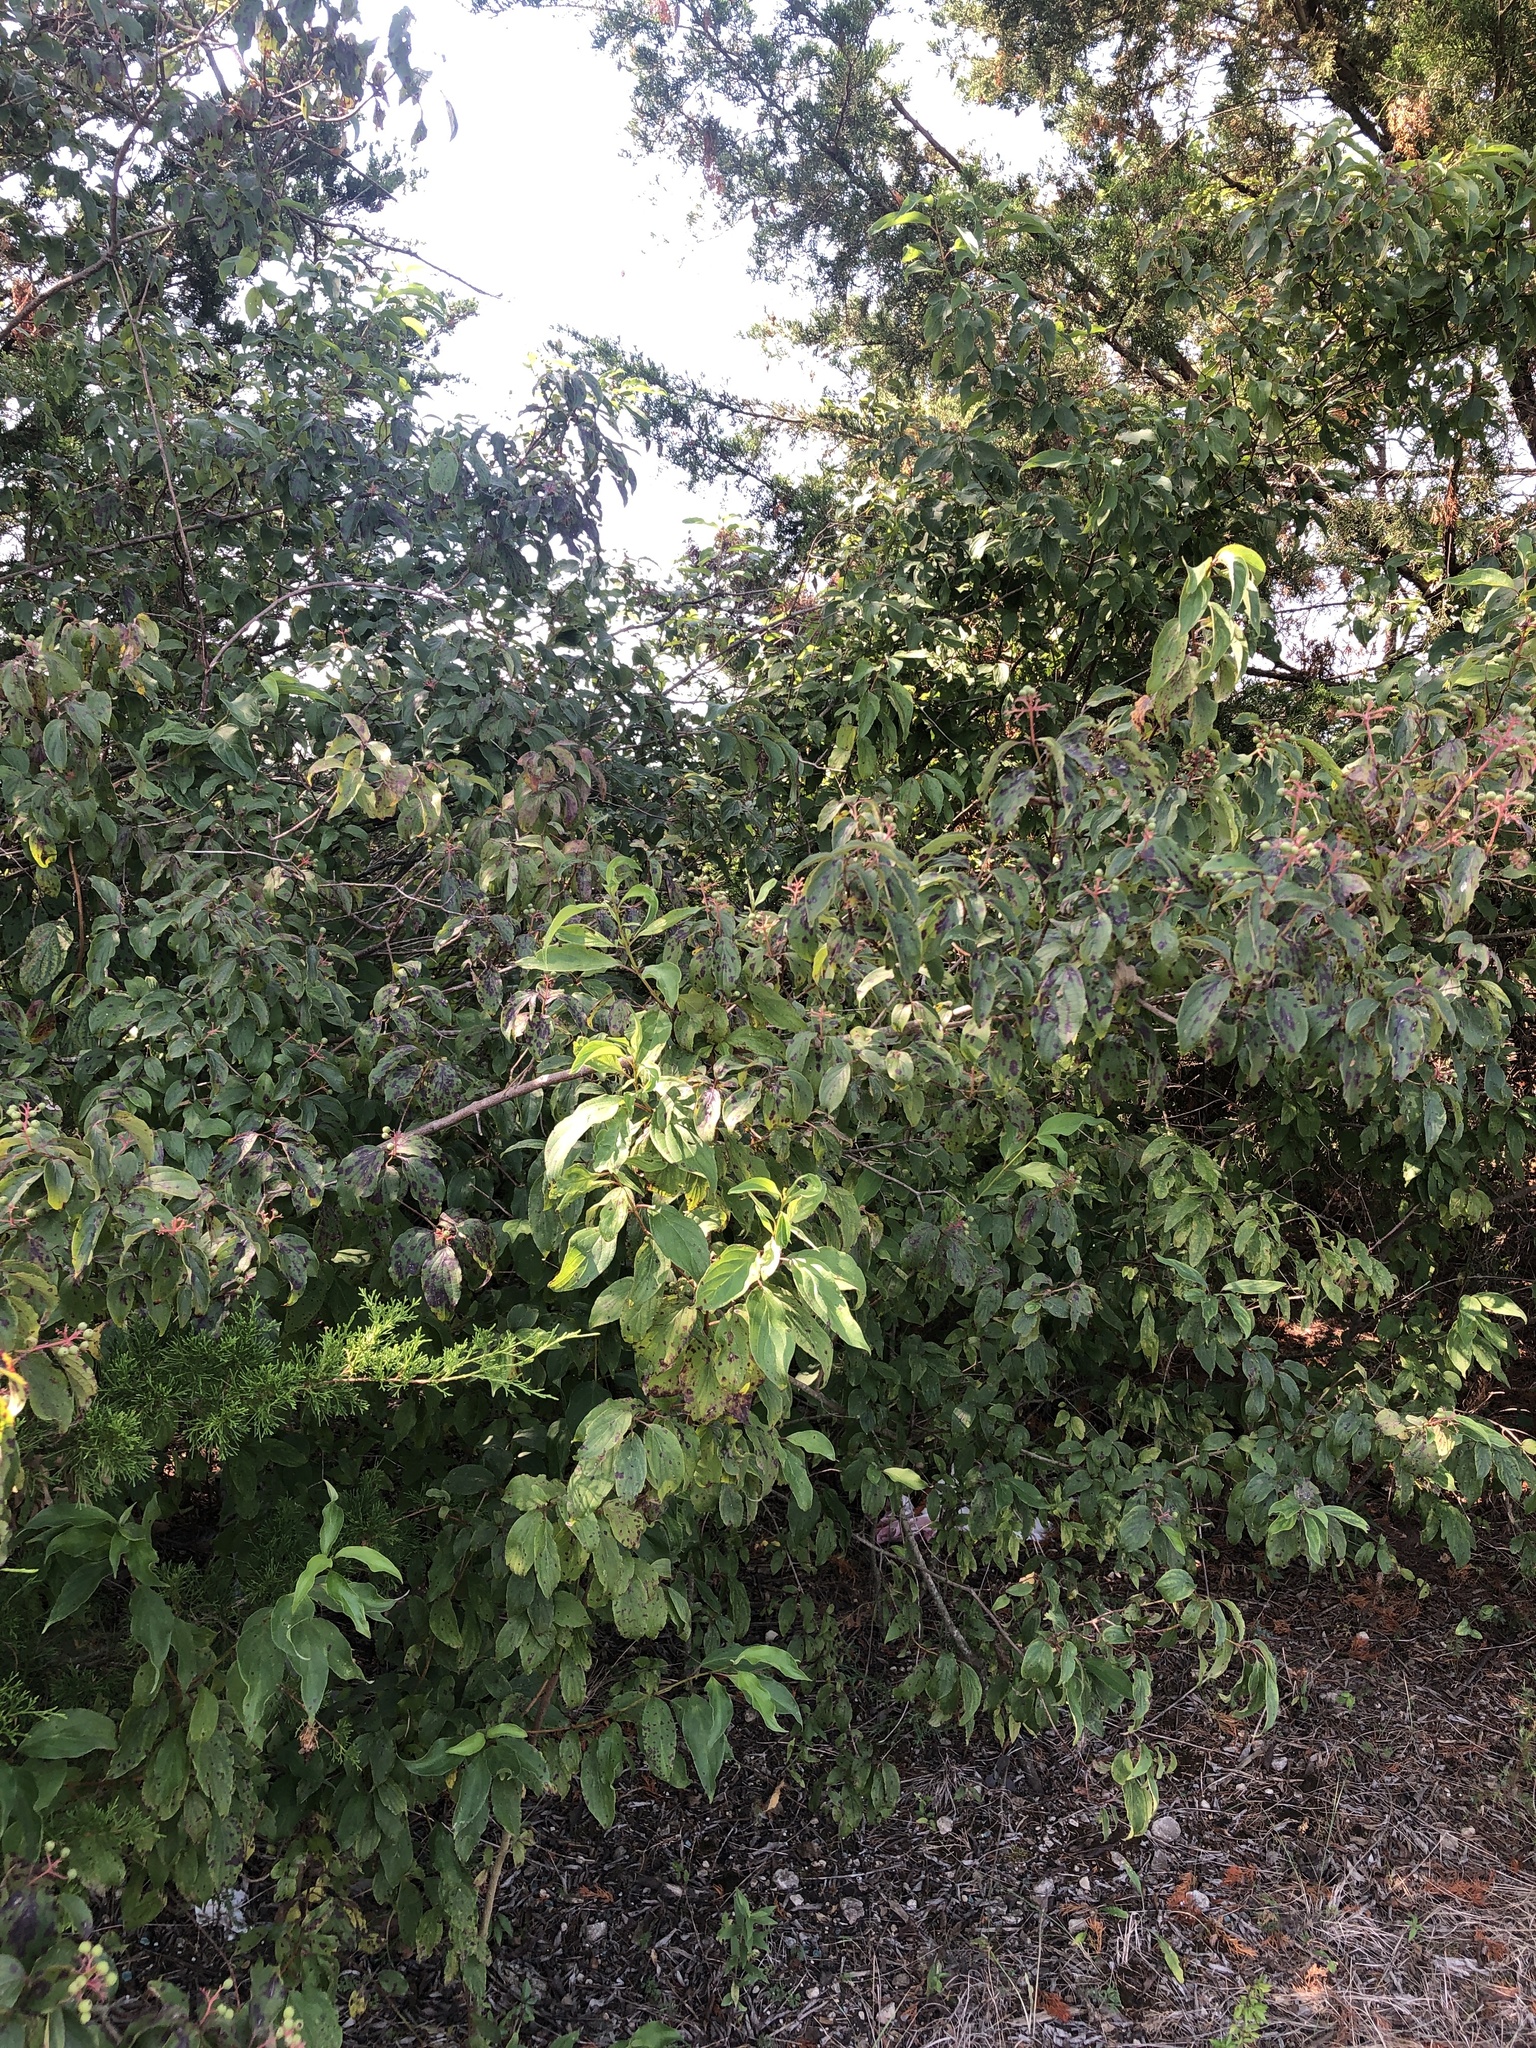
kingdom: Plantae
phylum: Tracheophyta
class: Magnoliopsida
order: Cornales
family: Cornaceae
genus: Cornus
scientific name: Cornus drummondii
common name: Rough-leaf dogwood
